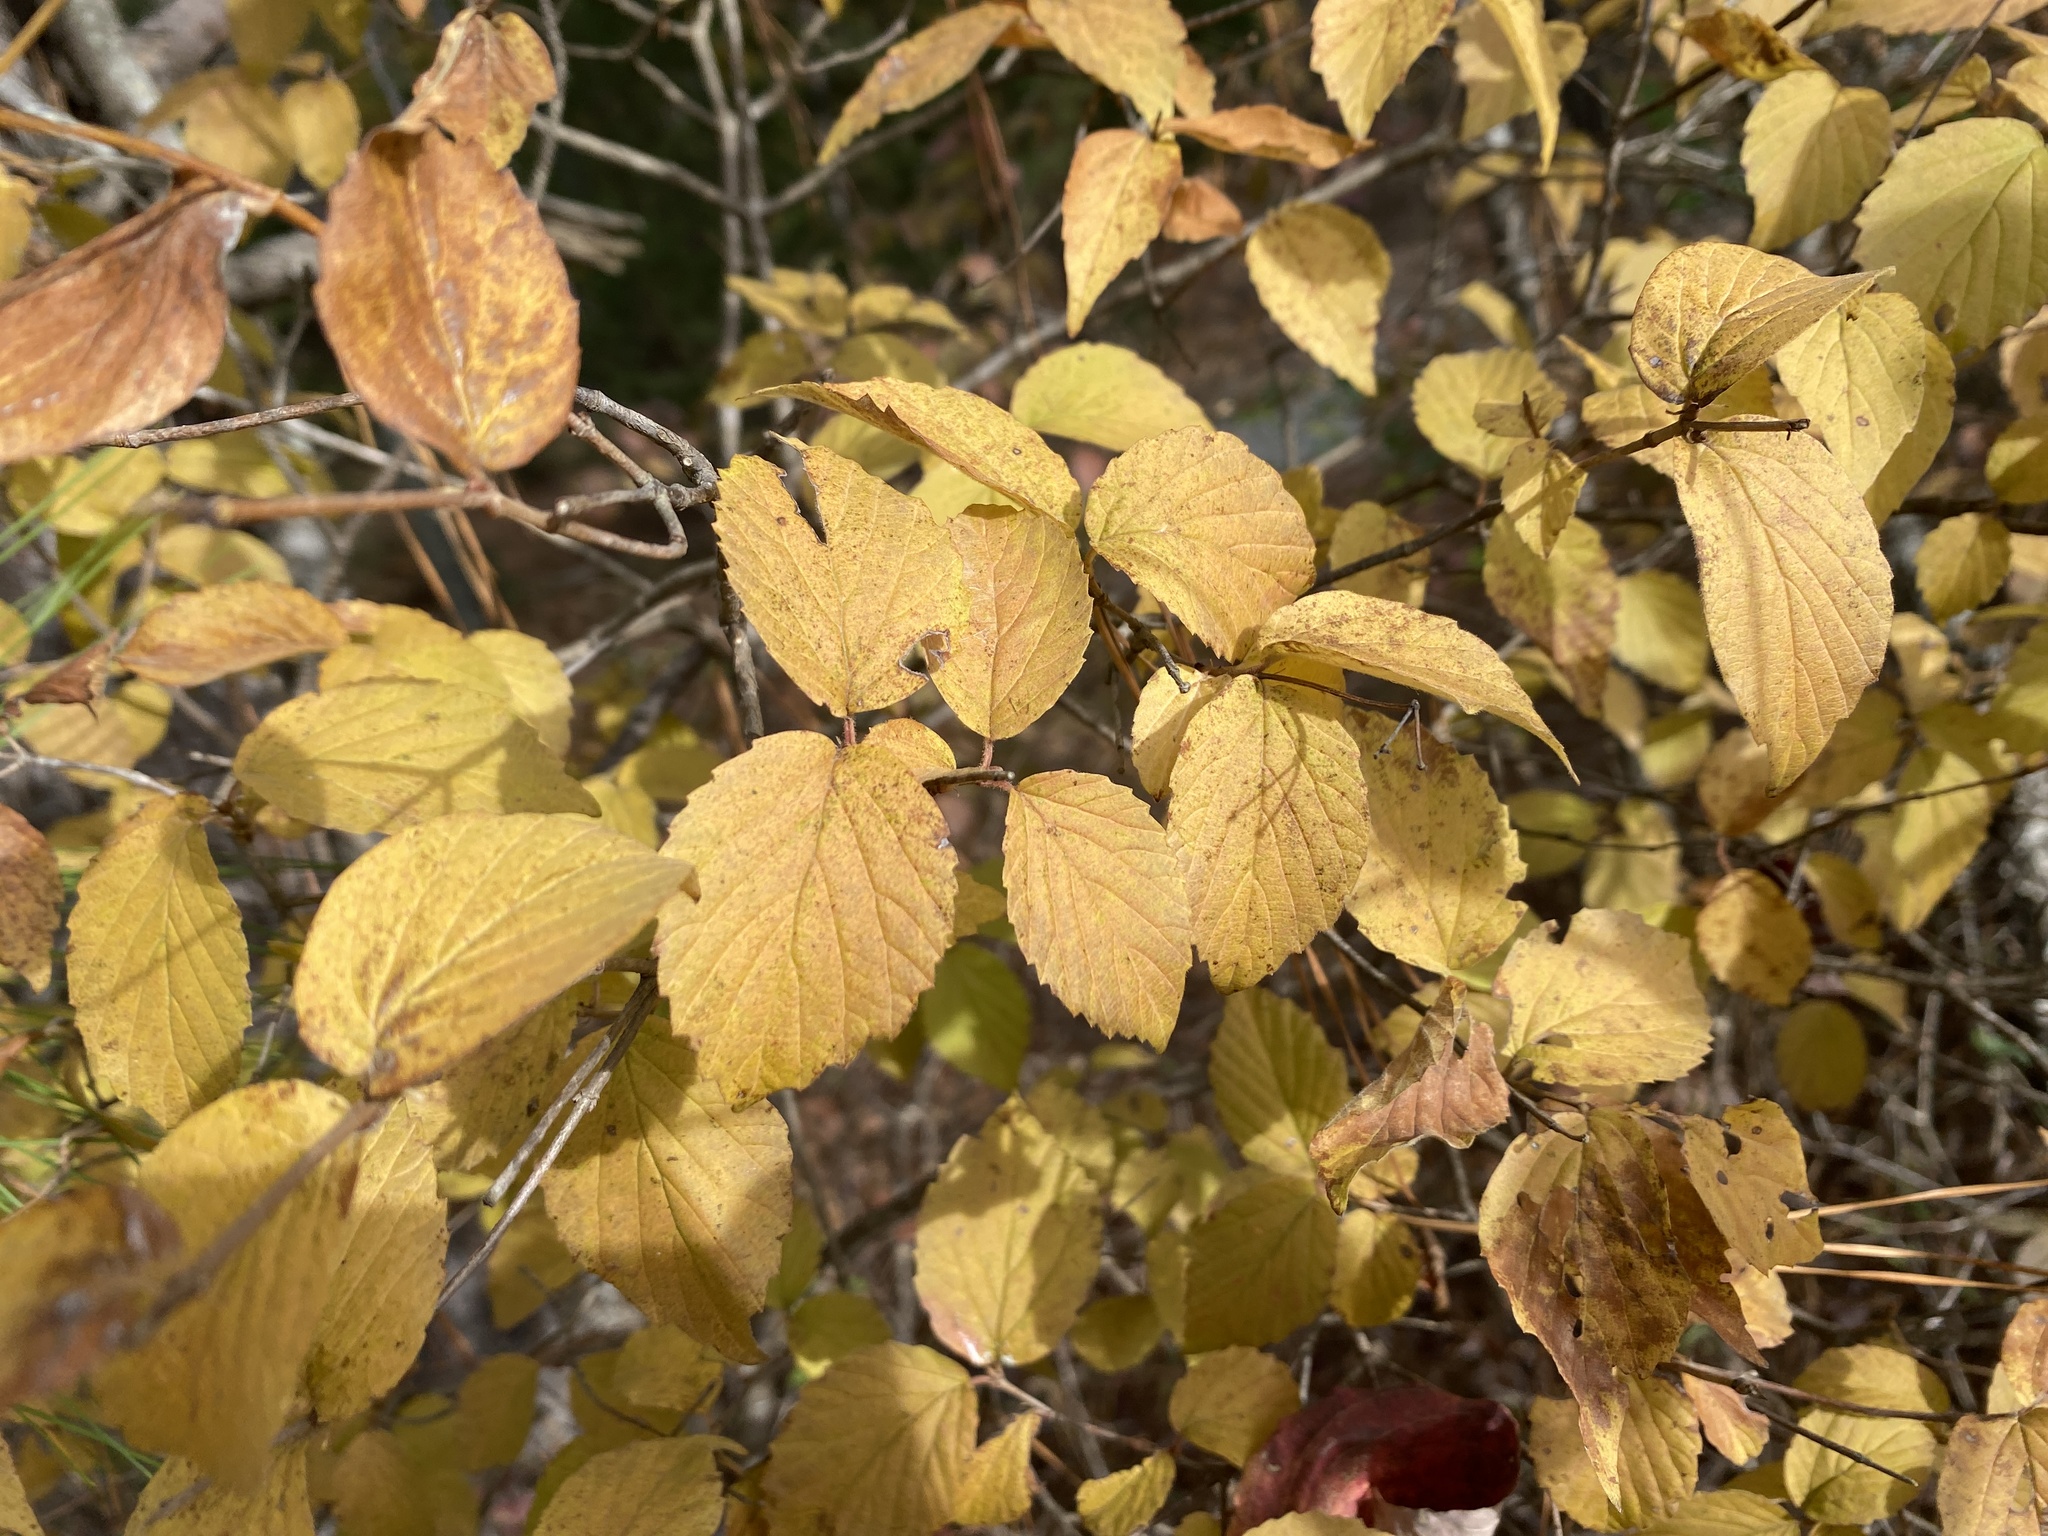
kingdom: Plantae
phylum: Tracheophyta
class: Magnoliopsida
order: Dipsacales
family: Viburnaceae
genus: Viburnum
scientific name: Viburnum rafinesqueanum
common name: Downy arrow-wood
